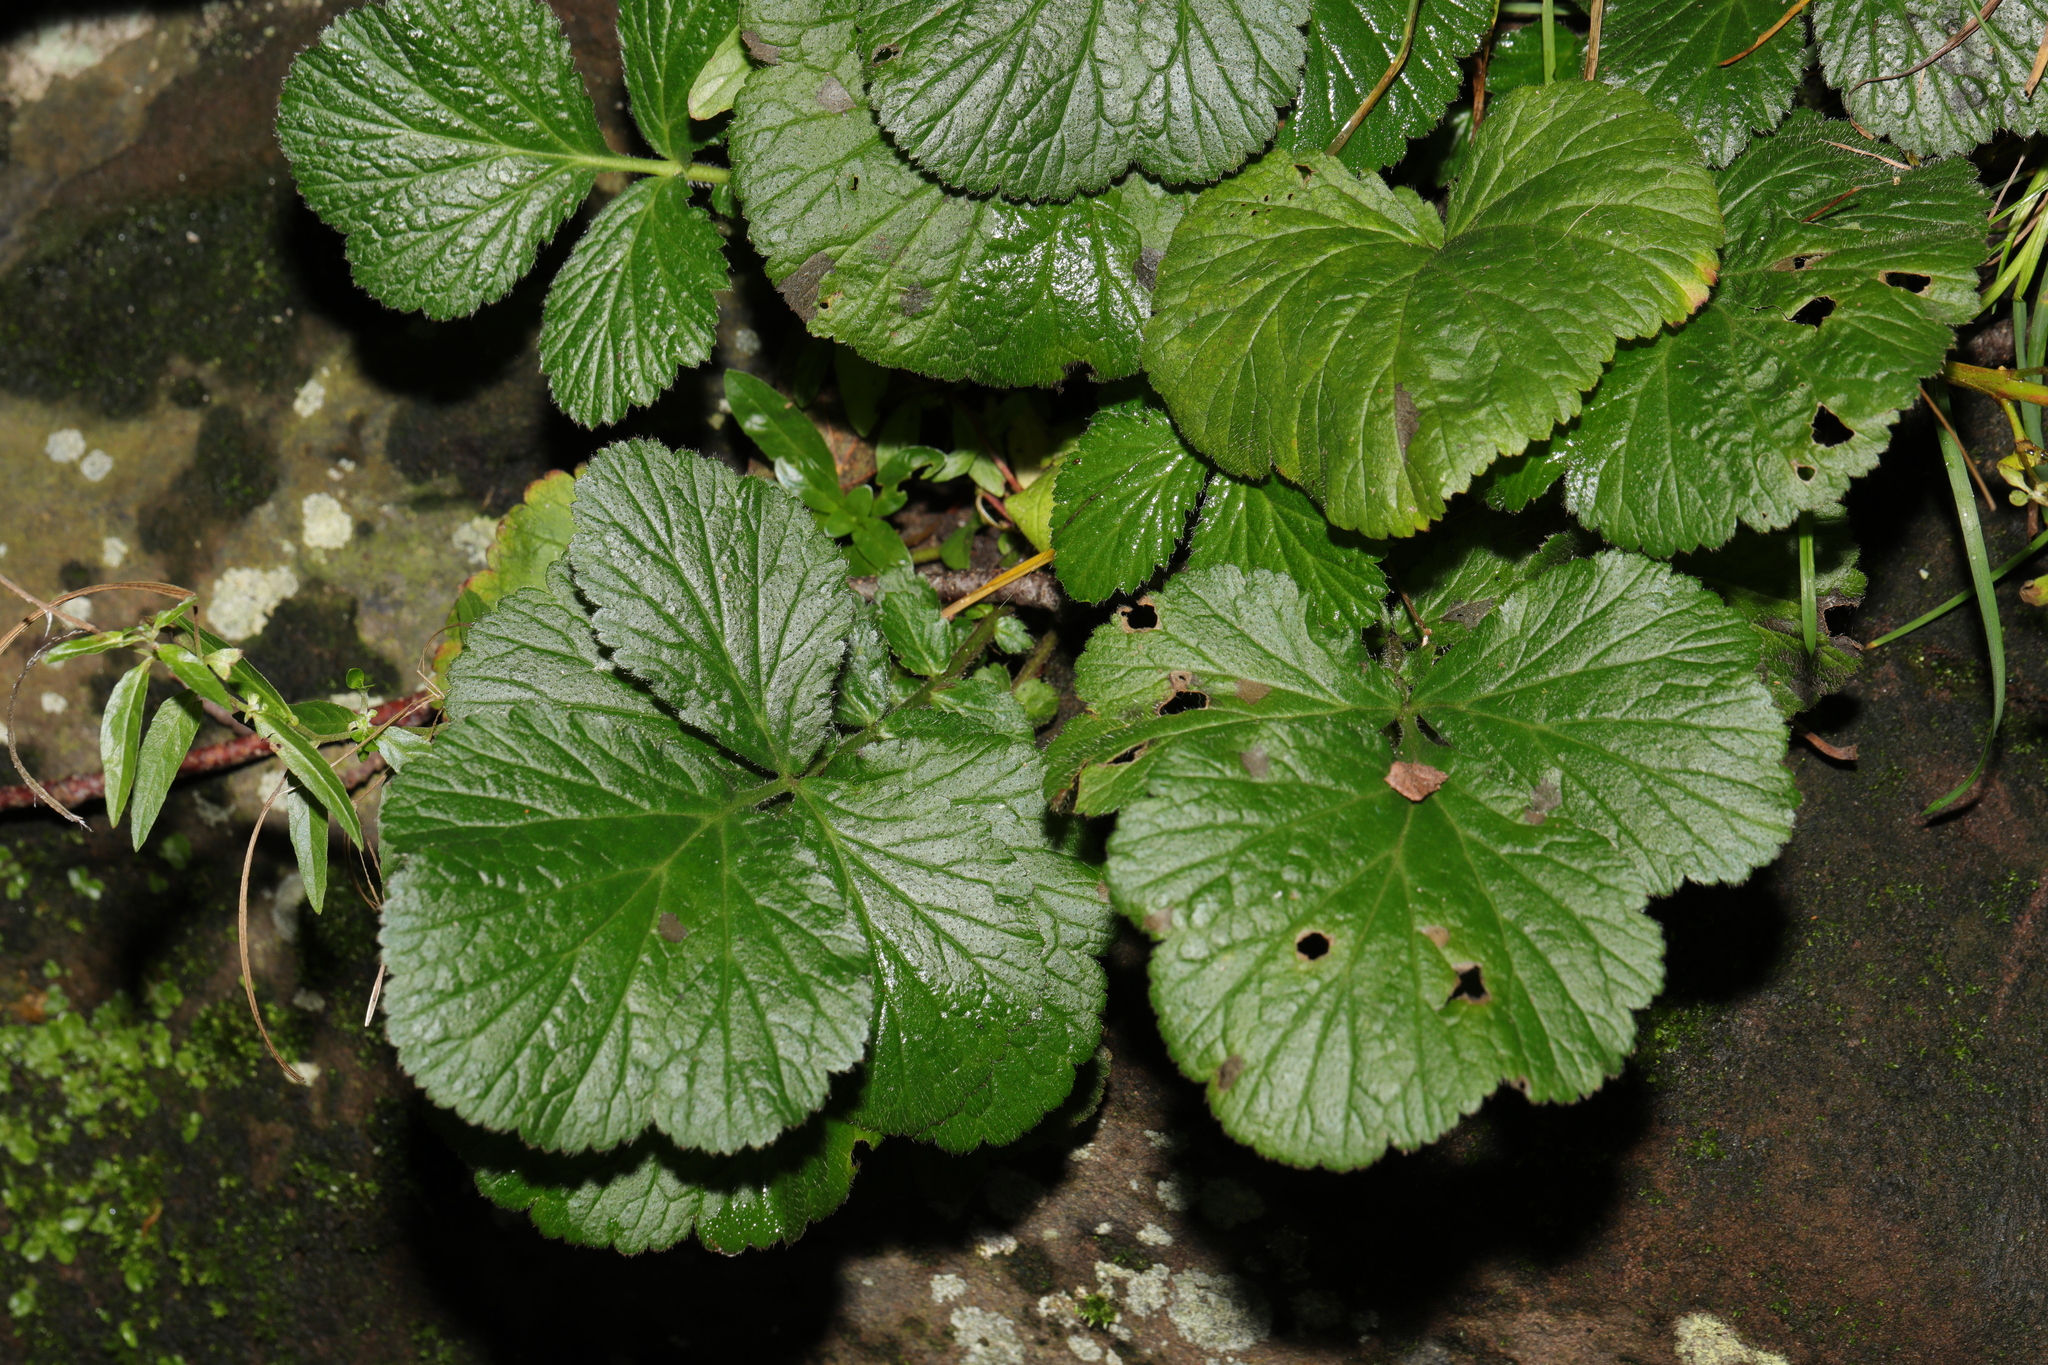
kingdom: Plantae
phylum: Tracheophyta
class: Magnoliopsida
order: Rosales
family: Rosaceae
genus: Geum
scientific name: Geum urbanum
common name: Wood avens
